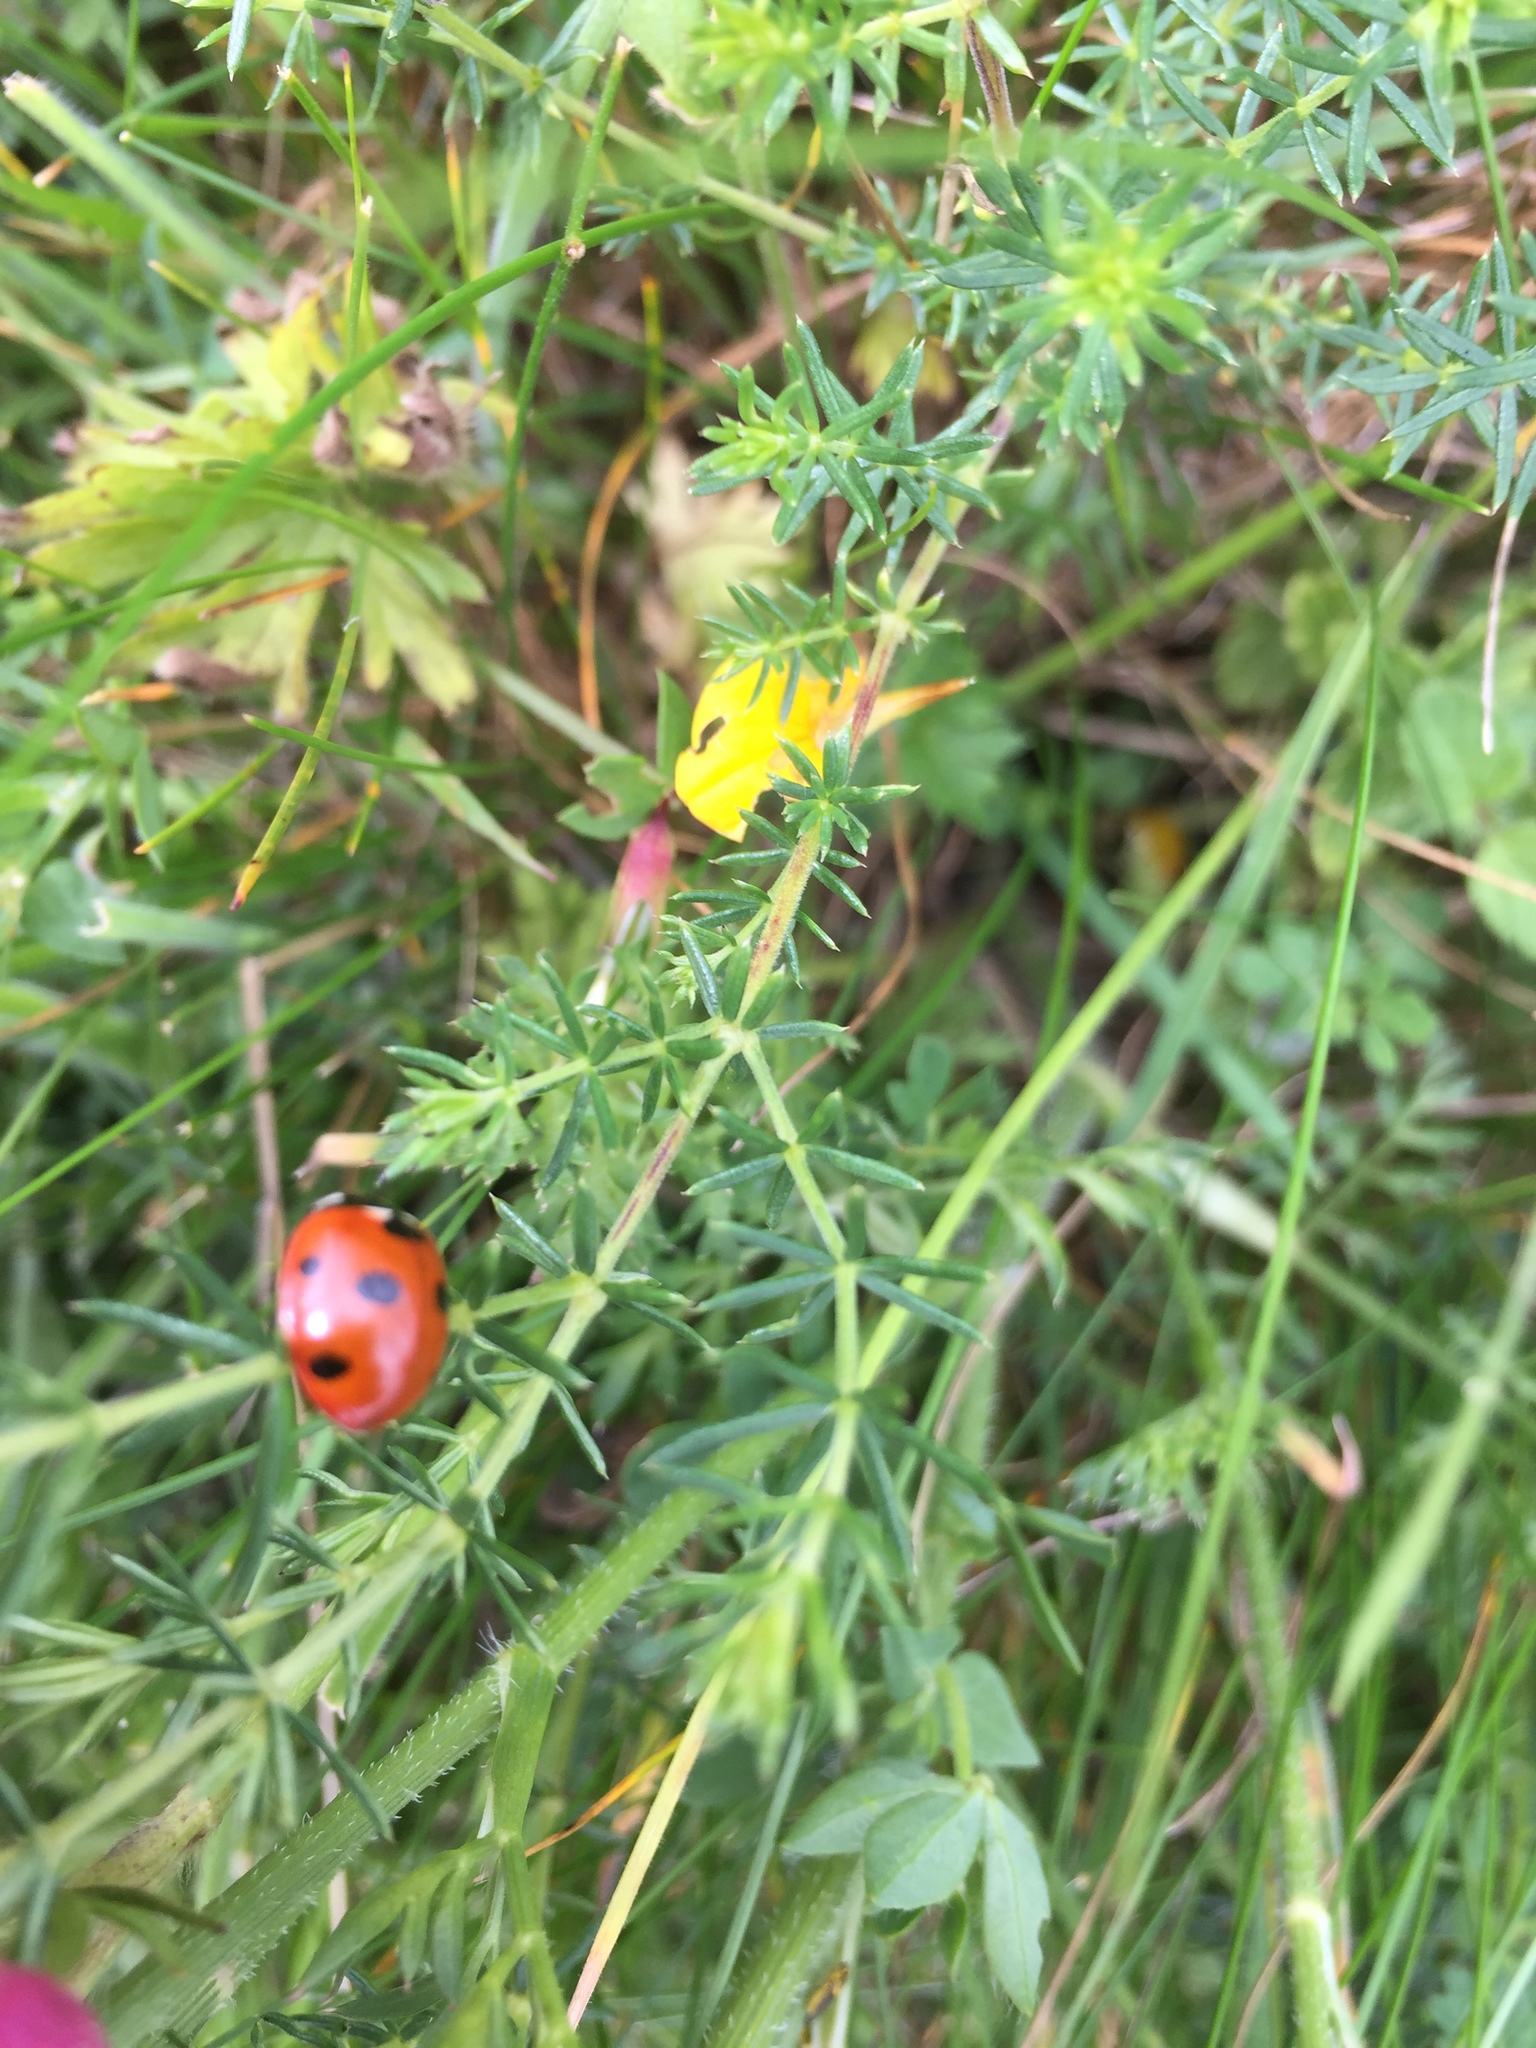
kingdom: Animalia
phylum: Arthropoda
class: Insecta
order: Coleoptera
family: Coccinellidae
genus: Coccinella
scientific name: Coccinella septempunctata
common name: Sevenspotted lady beetle
